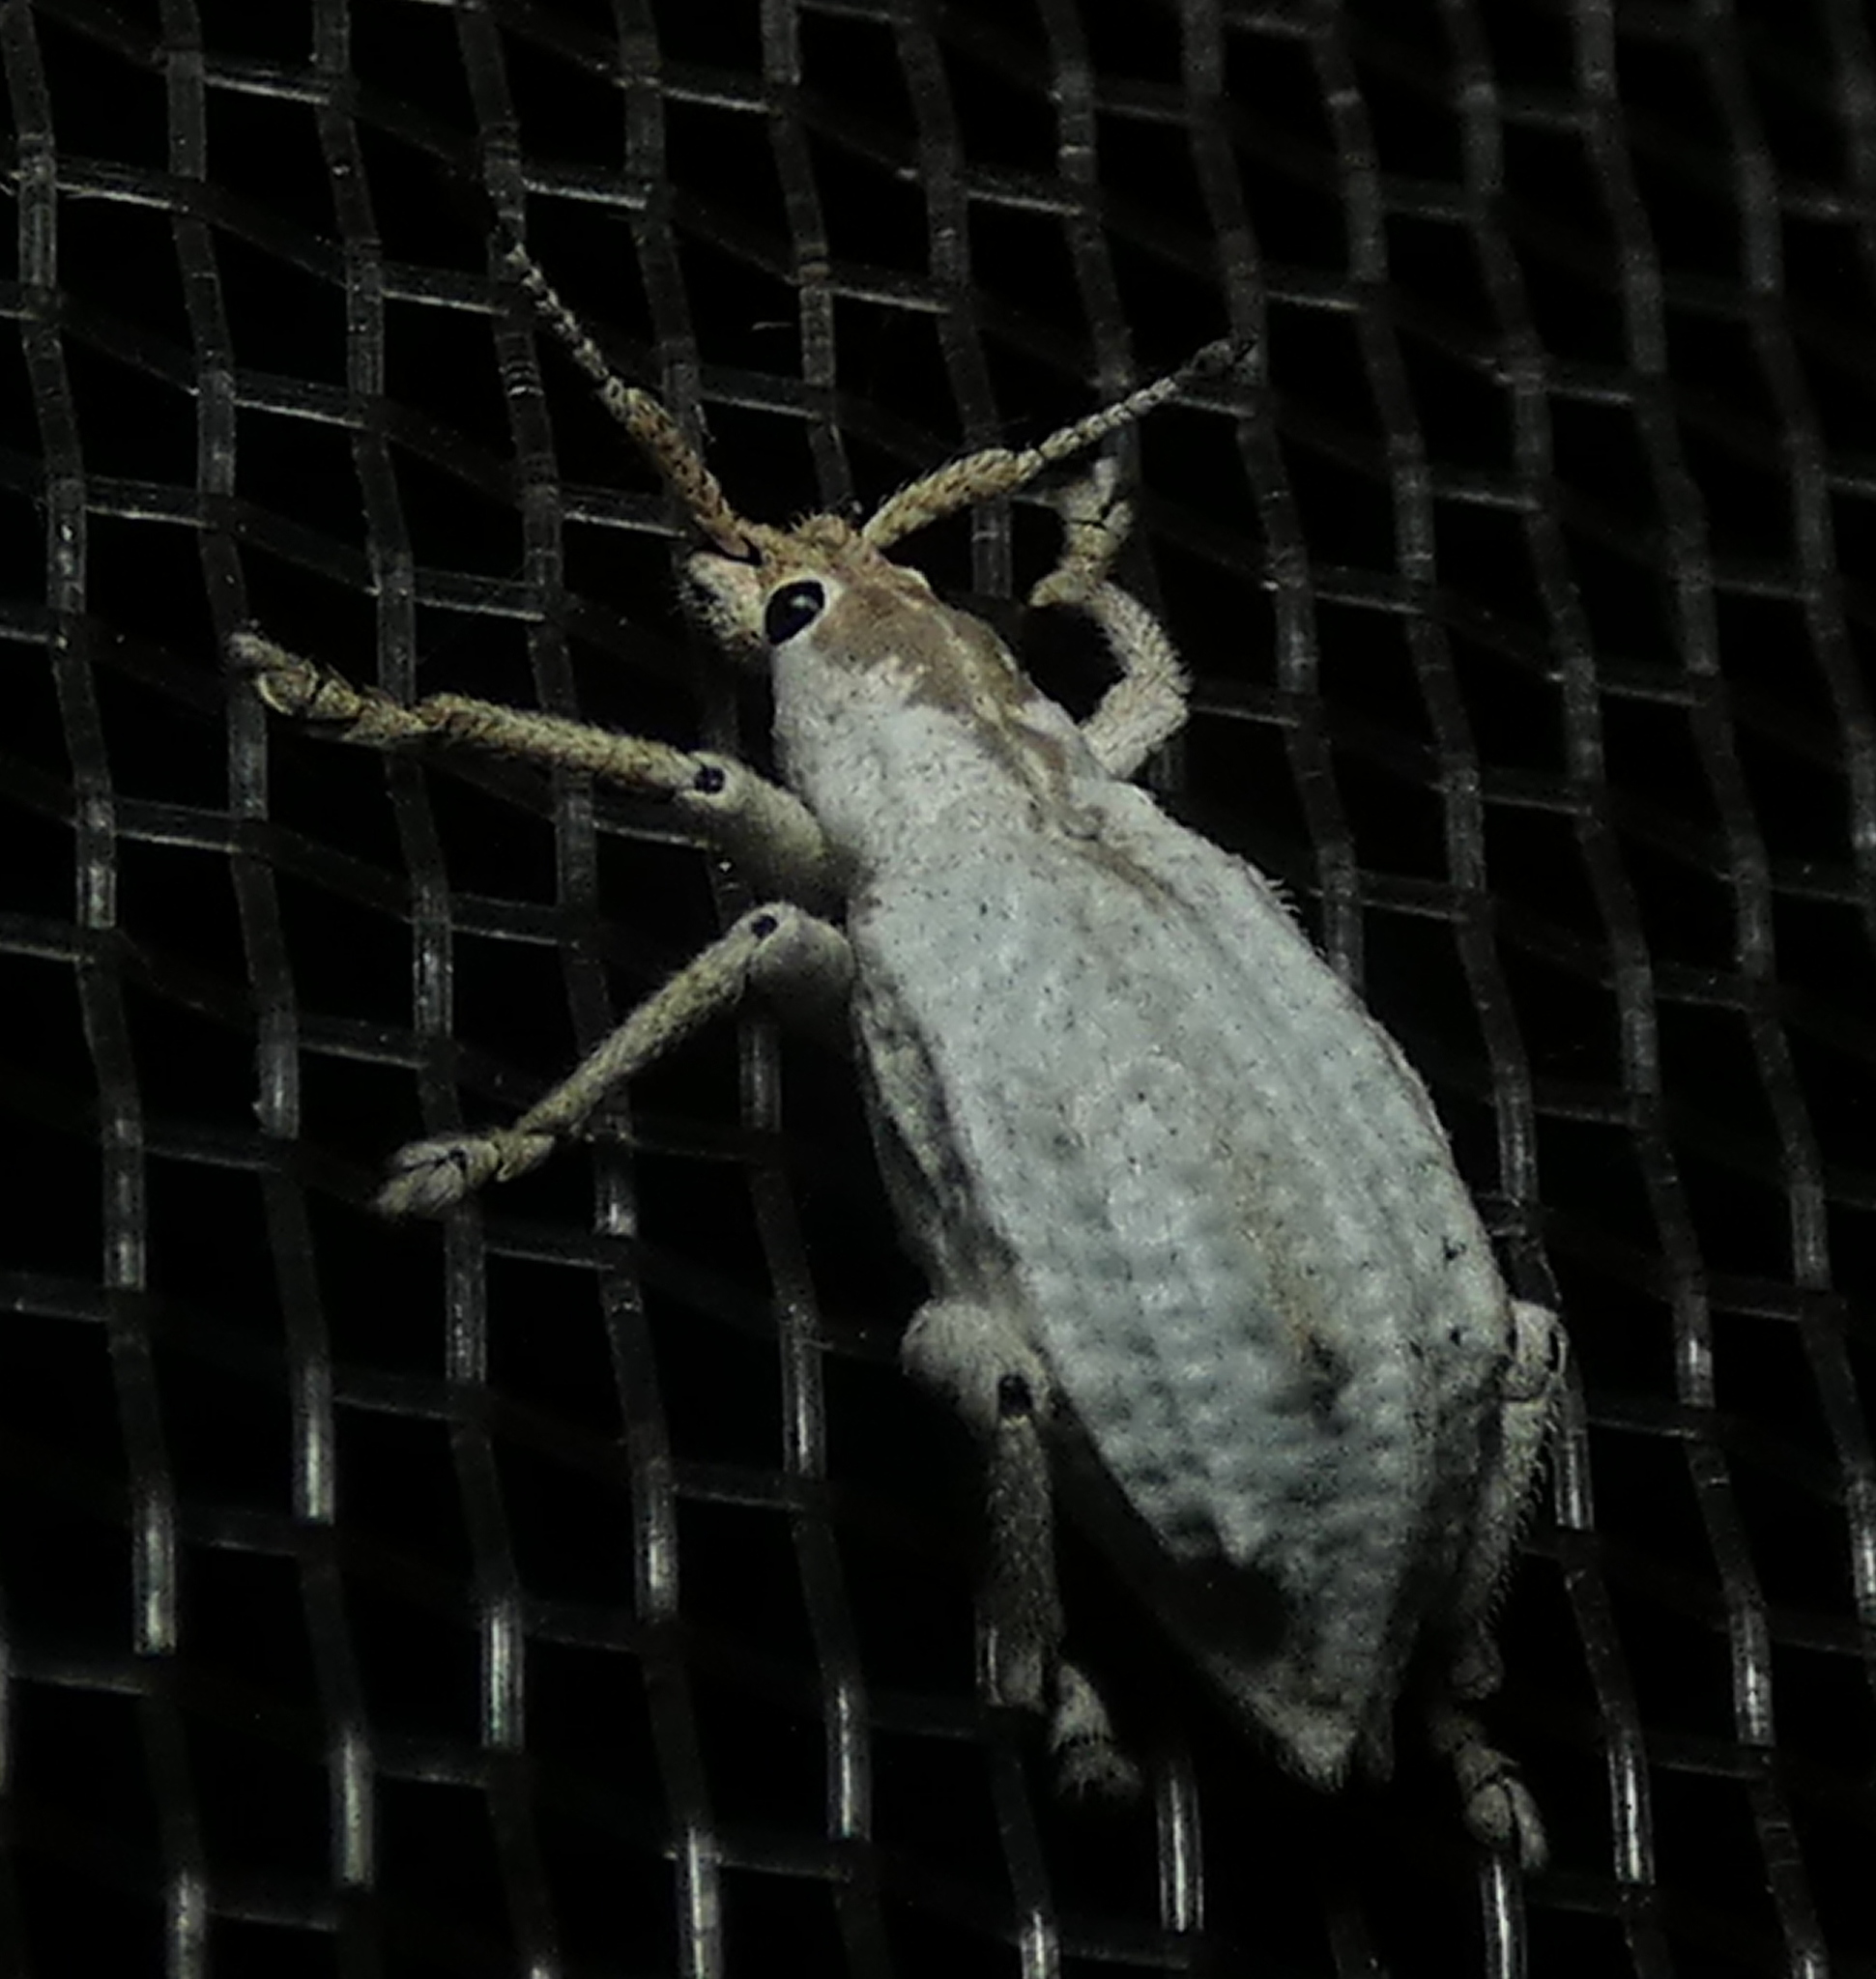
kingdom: Animalia
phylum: Arthropoda
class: Insecta
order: Coleoptera
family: Curculionidae
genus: Compsus
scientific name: Compsus niveus
